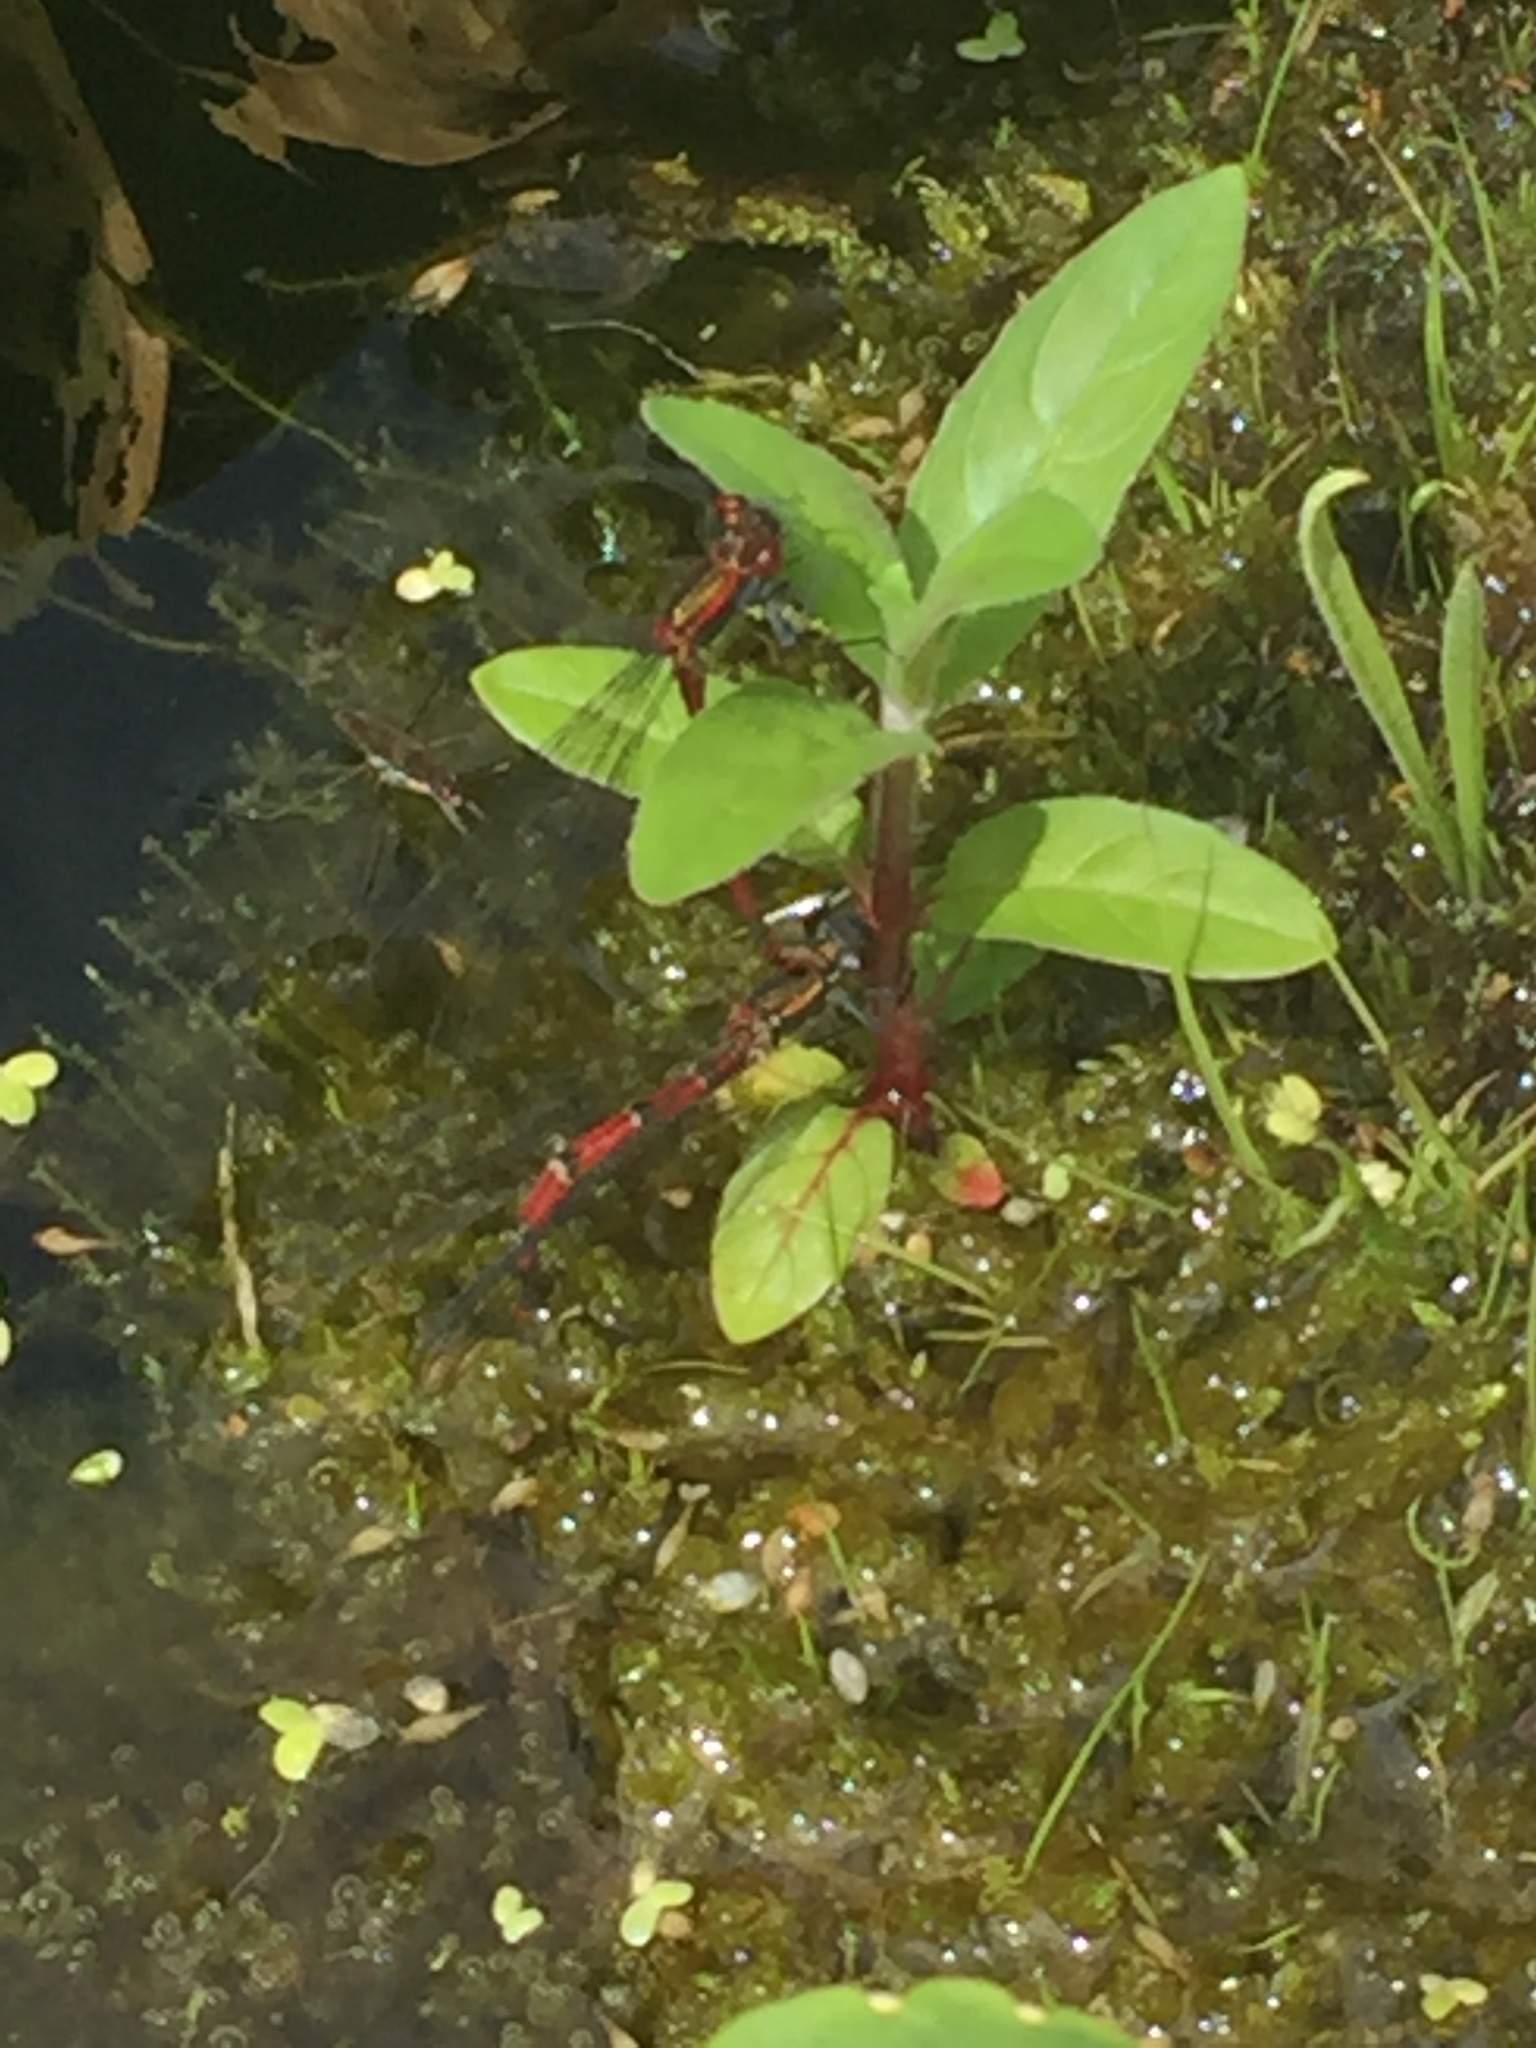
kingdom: Animalia
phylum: Arthropoda
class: Insecta
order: Odonata
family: Coenagrionidae
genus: Pyrrhosoma
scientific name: Pyrrhosoma nymphula
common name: Large red damsel
